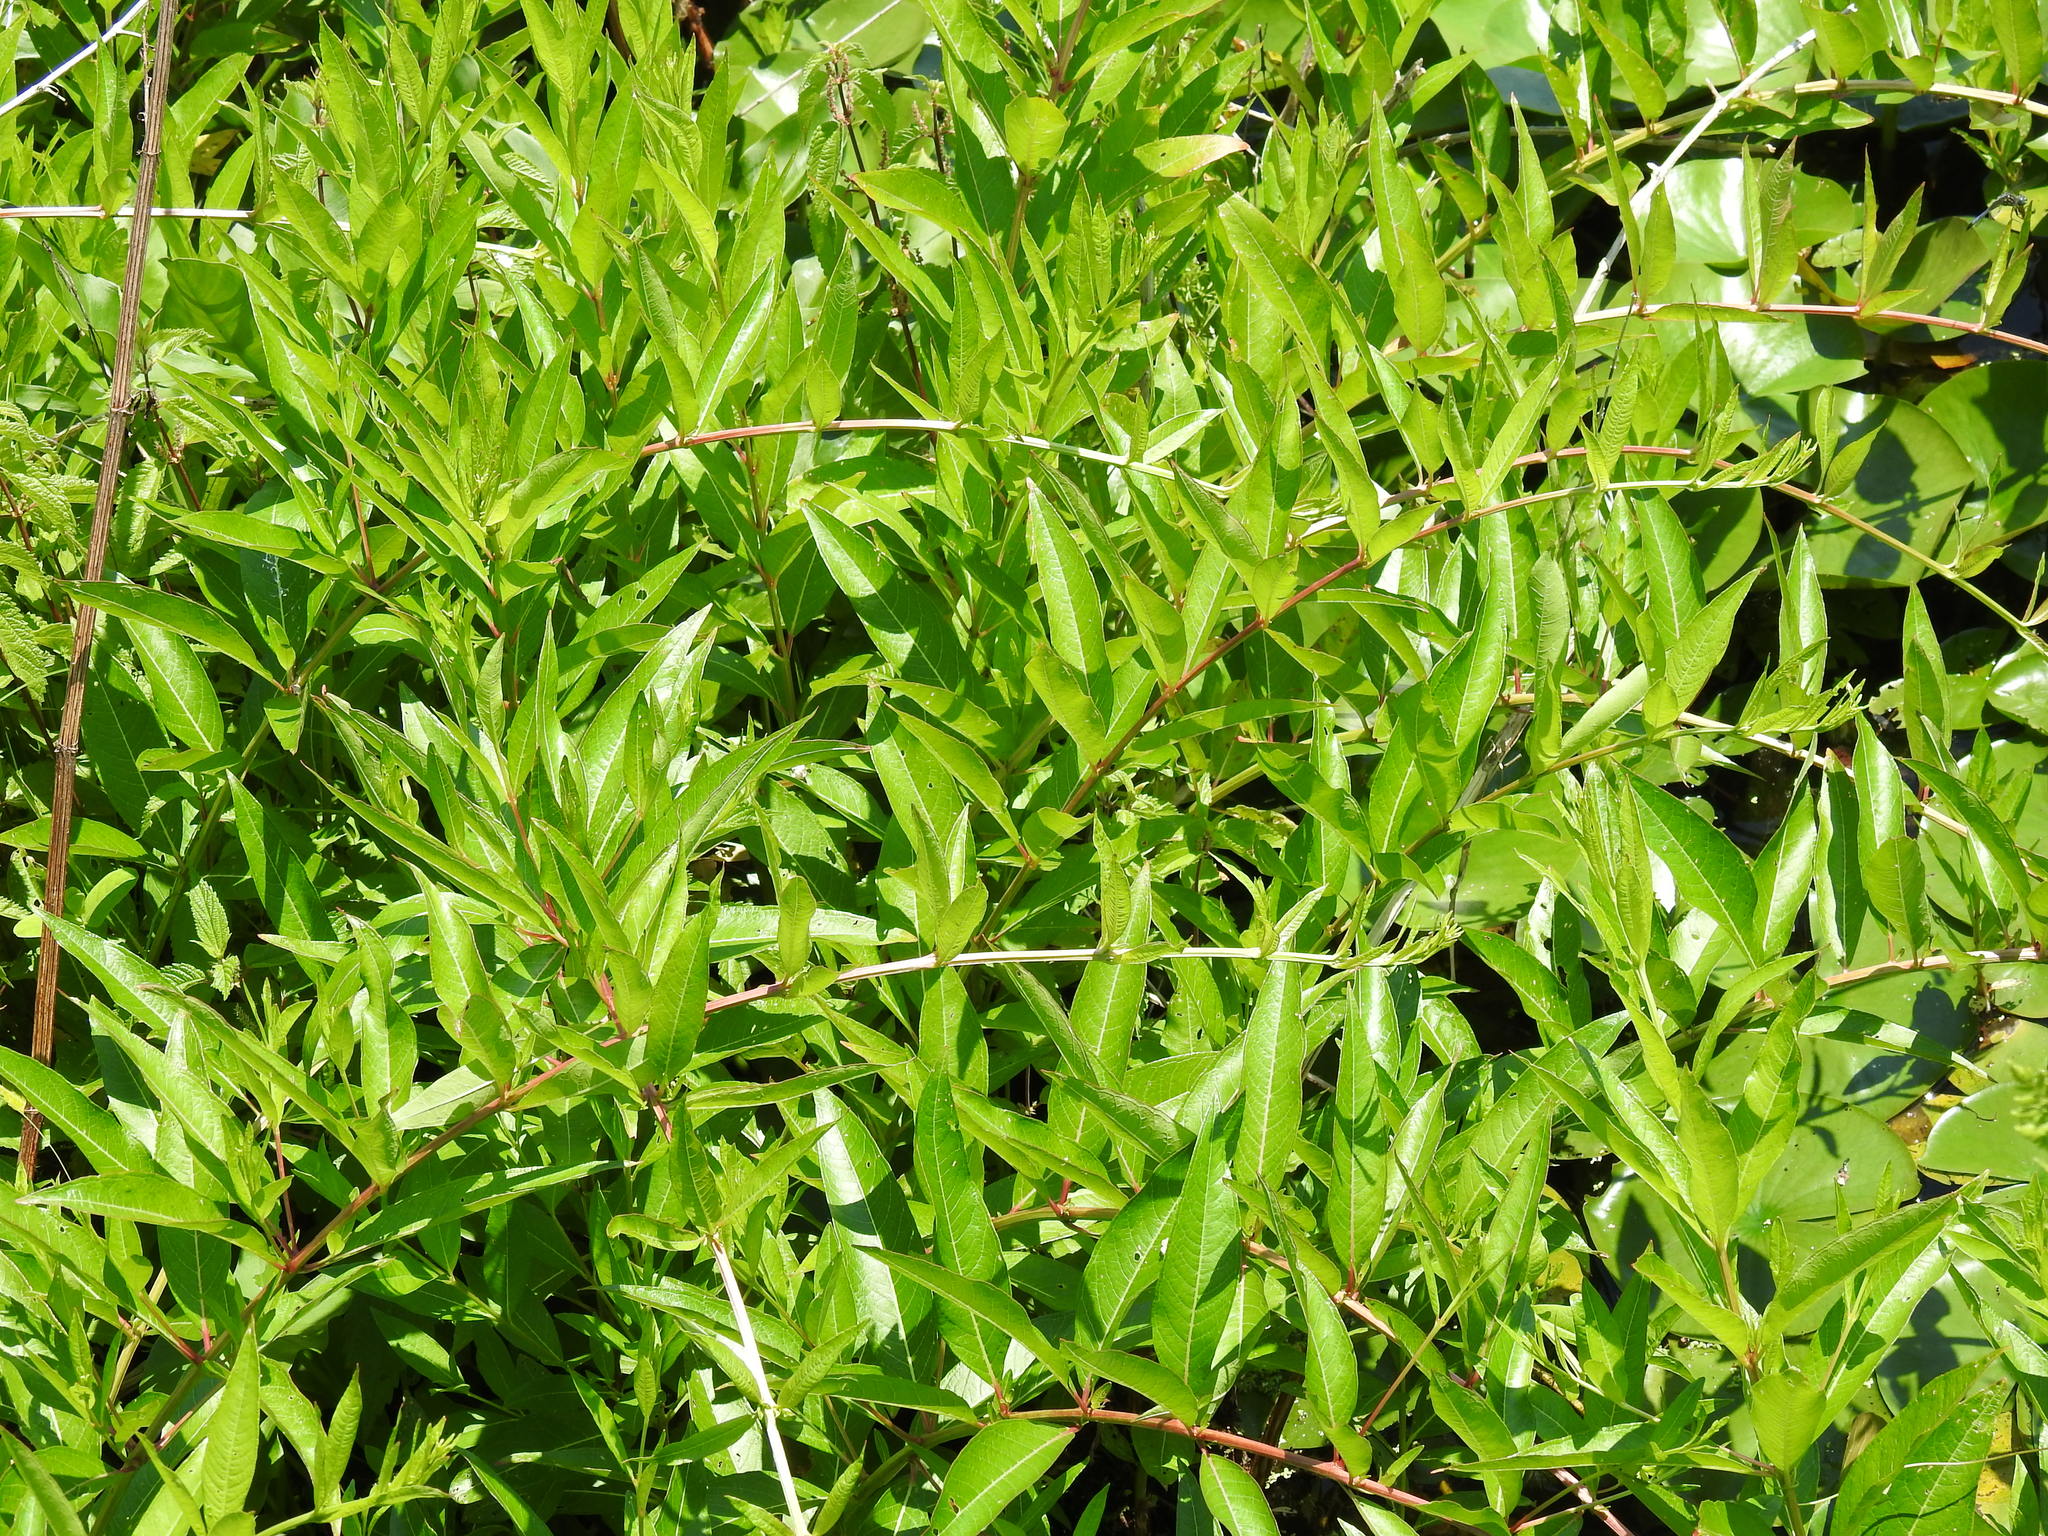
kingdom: Plantae
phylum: Tracheophyta
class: Magnoliopsida
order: Myrtales
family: Lythraceae
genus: Decodon
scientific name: Decodon verticillatus
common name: Hairy swamp loosestrife
